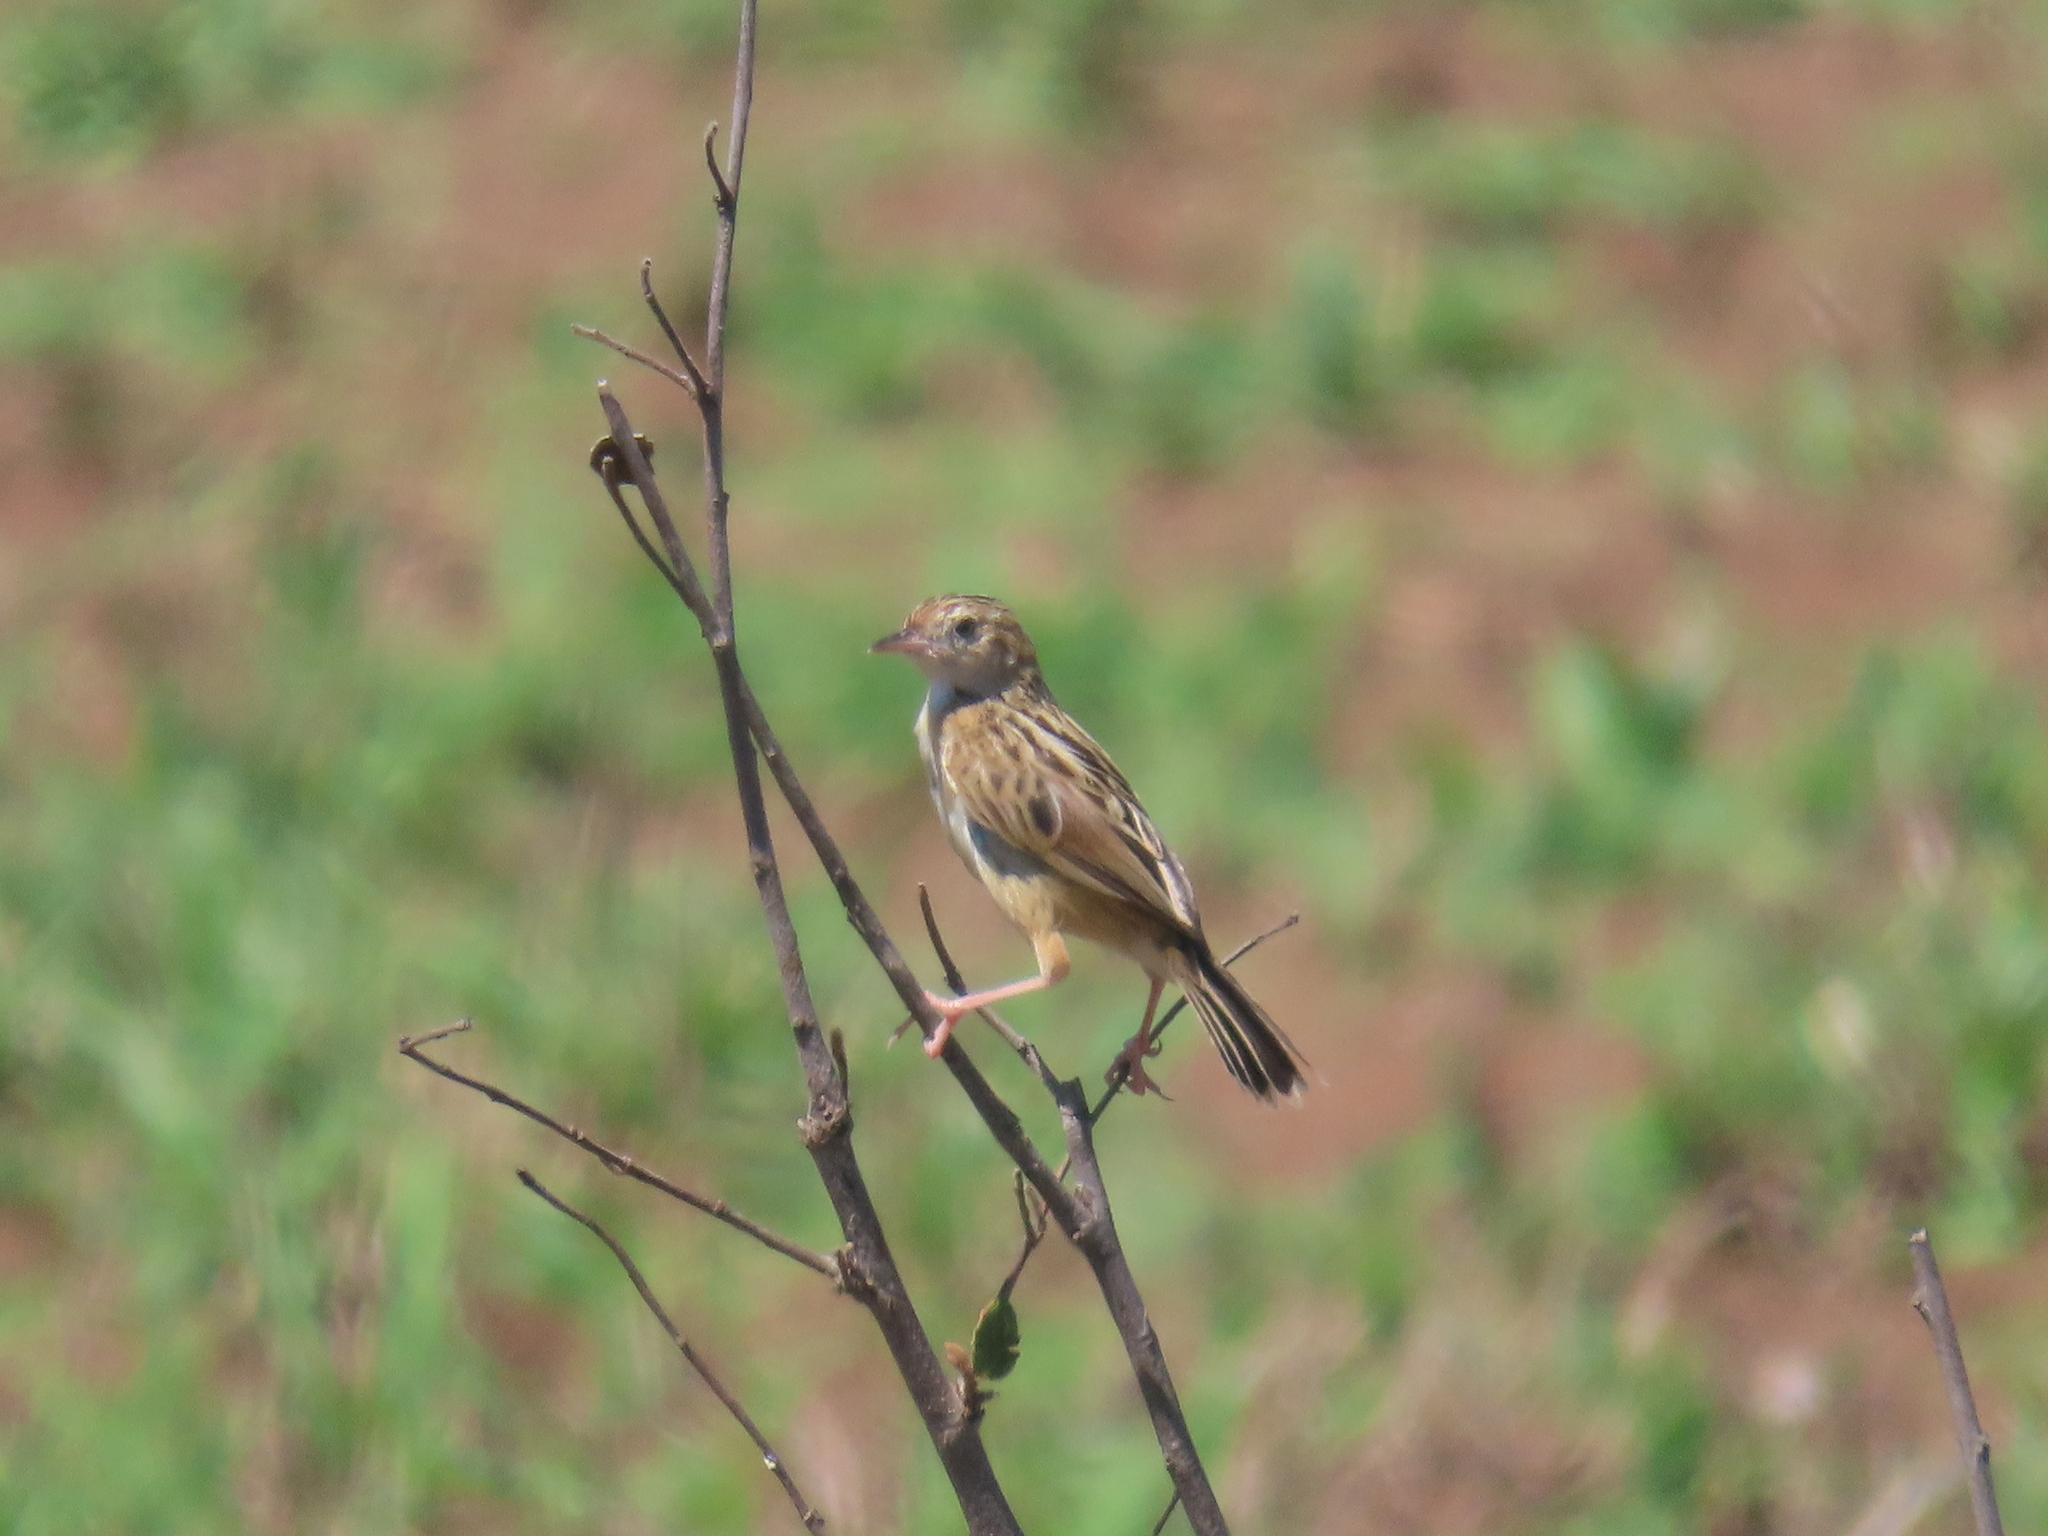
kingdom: Animalia
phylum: Chordata
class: Aves
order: Passeriformes
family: Cisticolidae
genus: Cisticola
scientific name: Cisticola juncidis
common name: Zitting cisticola
